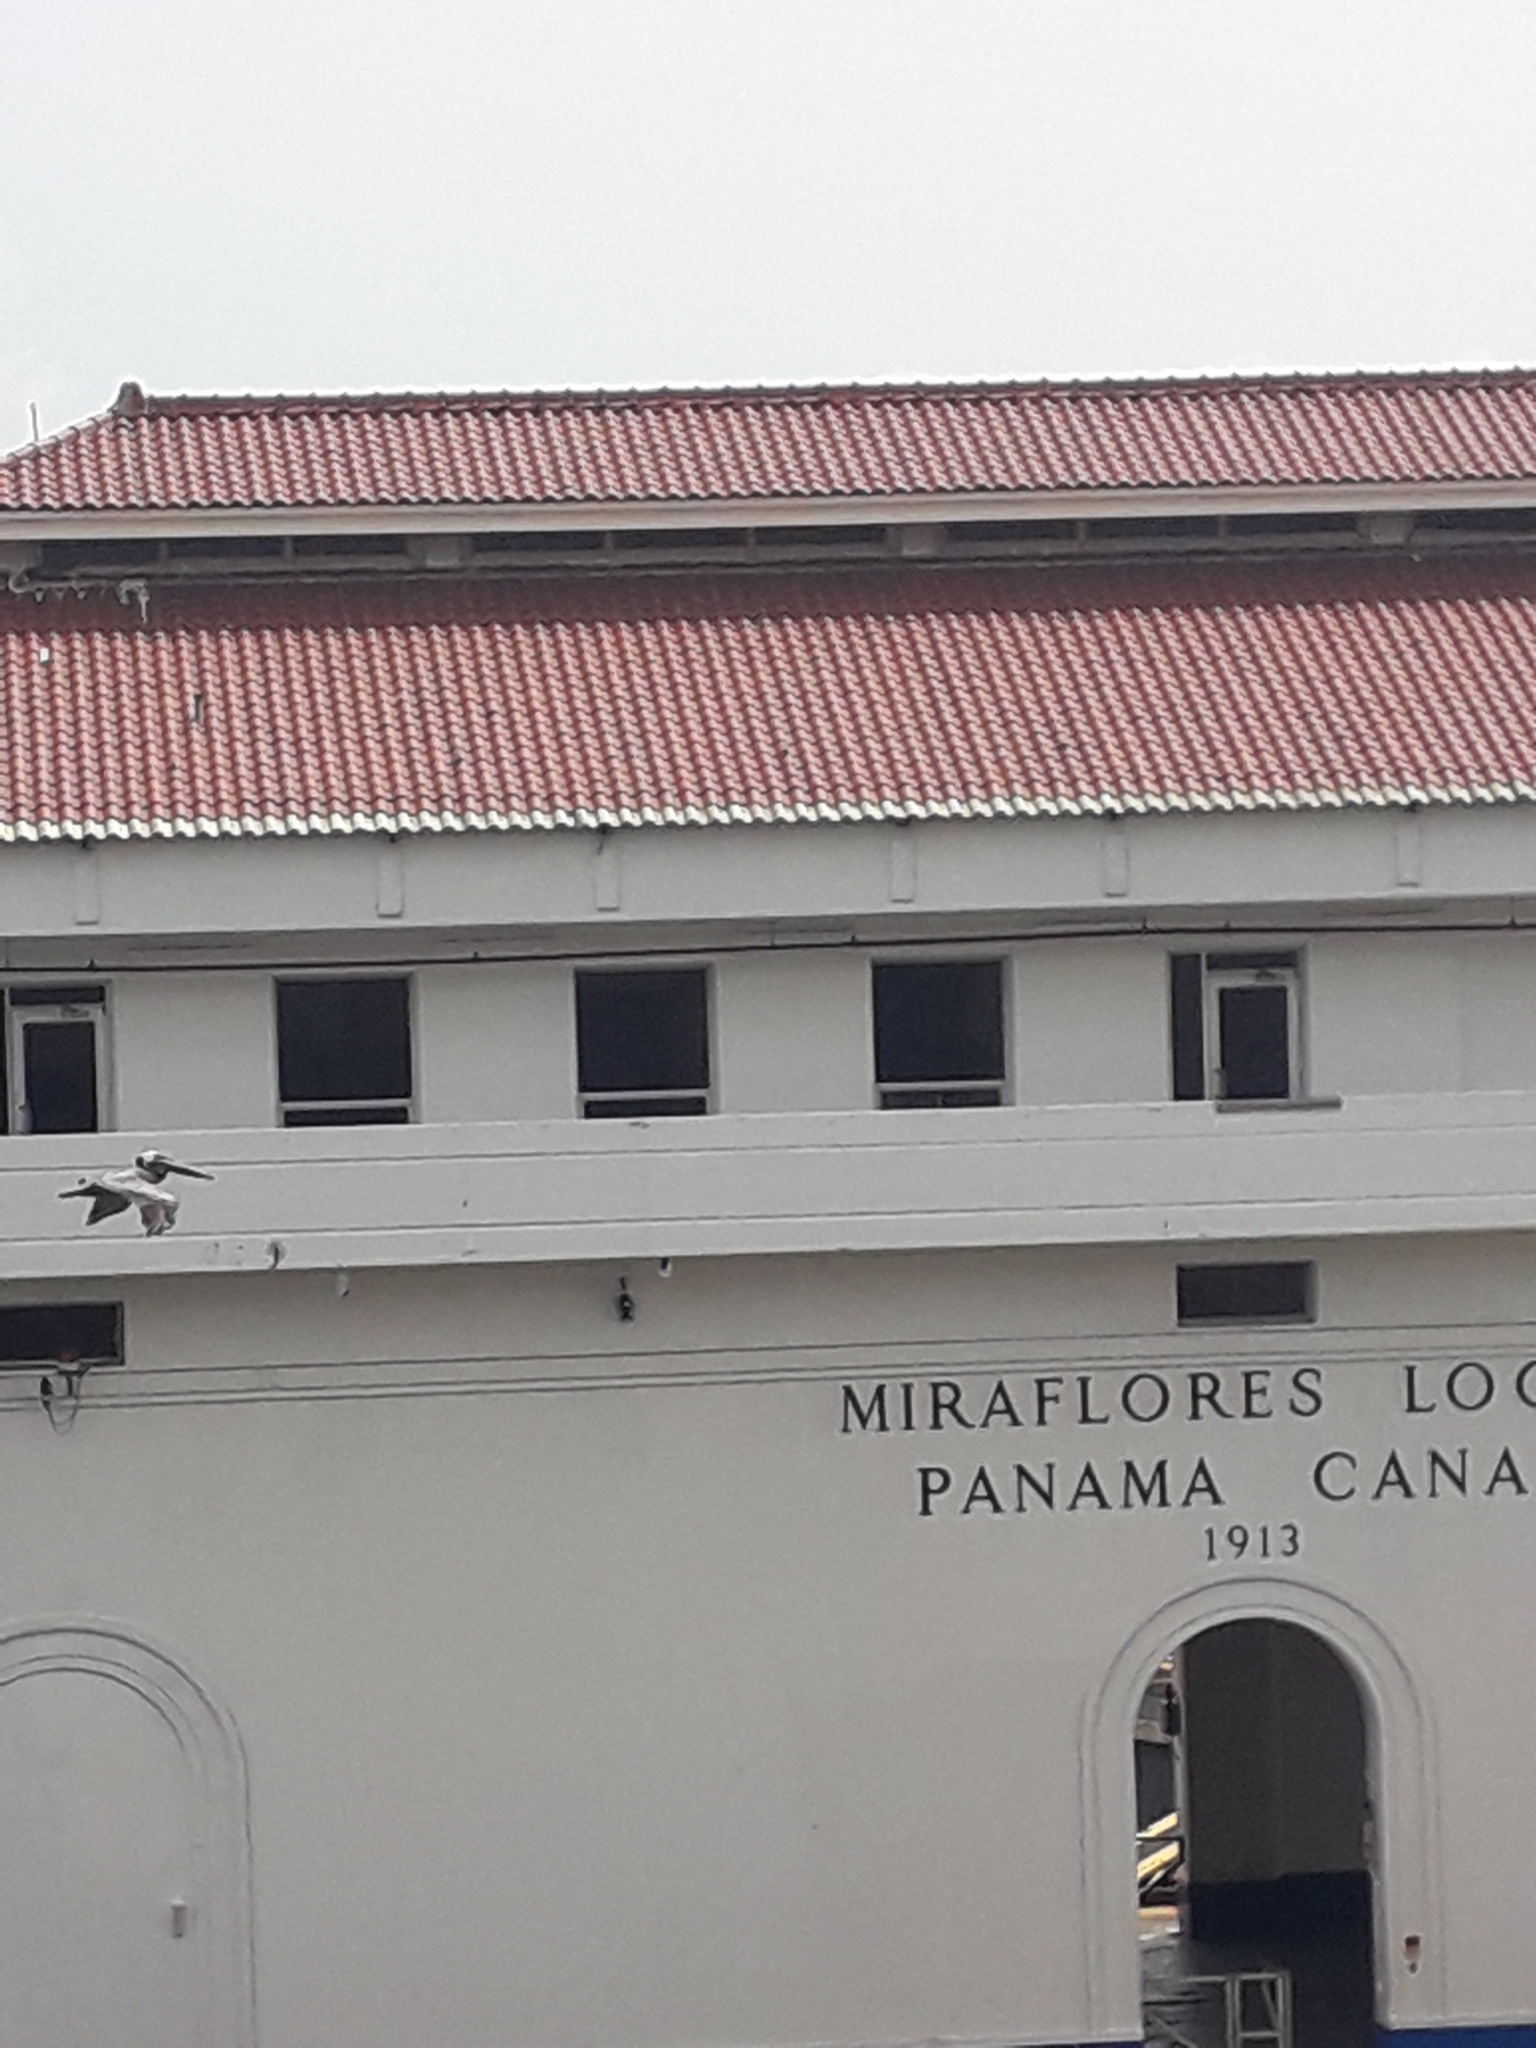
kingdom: Animalia
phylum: Chordata
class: Aves
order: Pelecaniformes
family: Pelecanidae
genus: Pelecanus
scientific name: Pelecanus occidentalis
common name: Brown pelican
